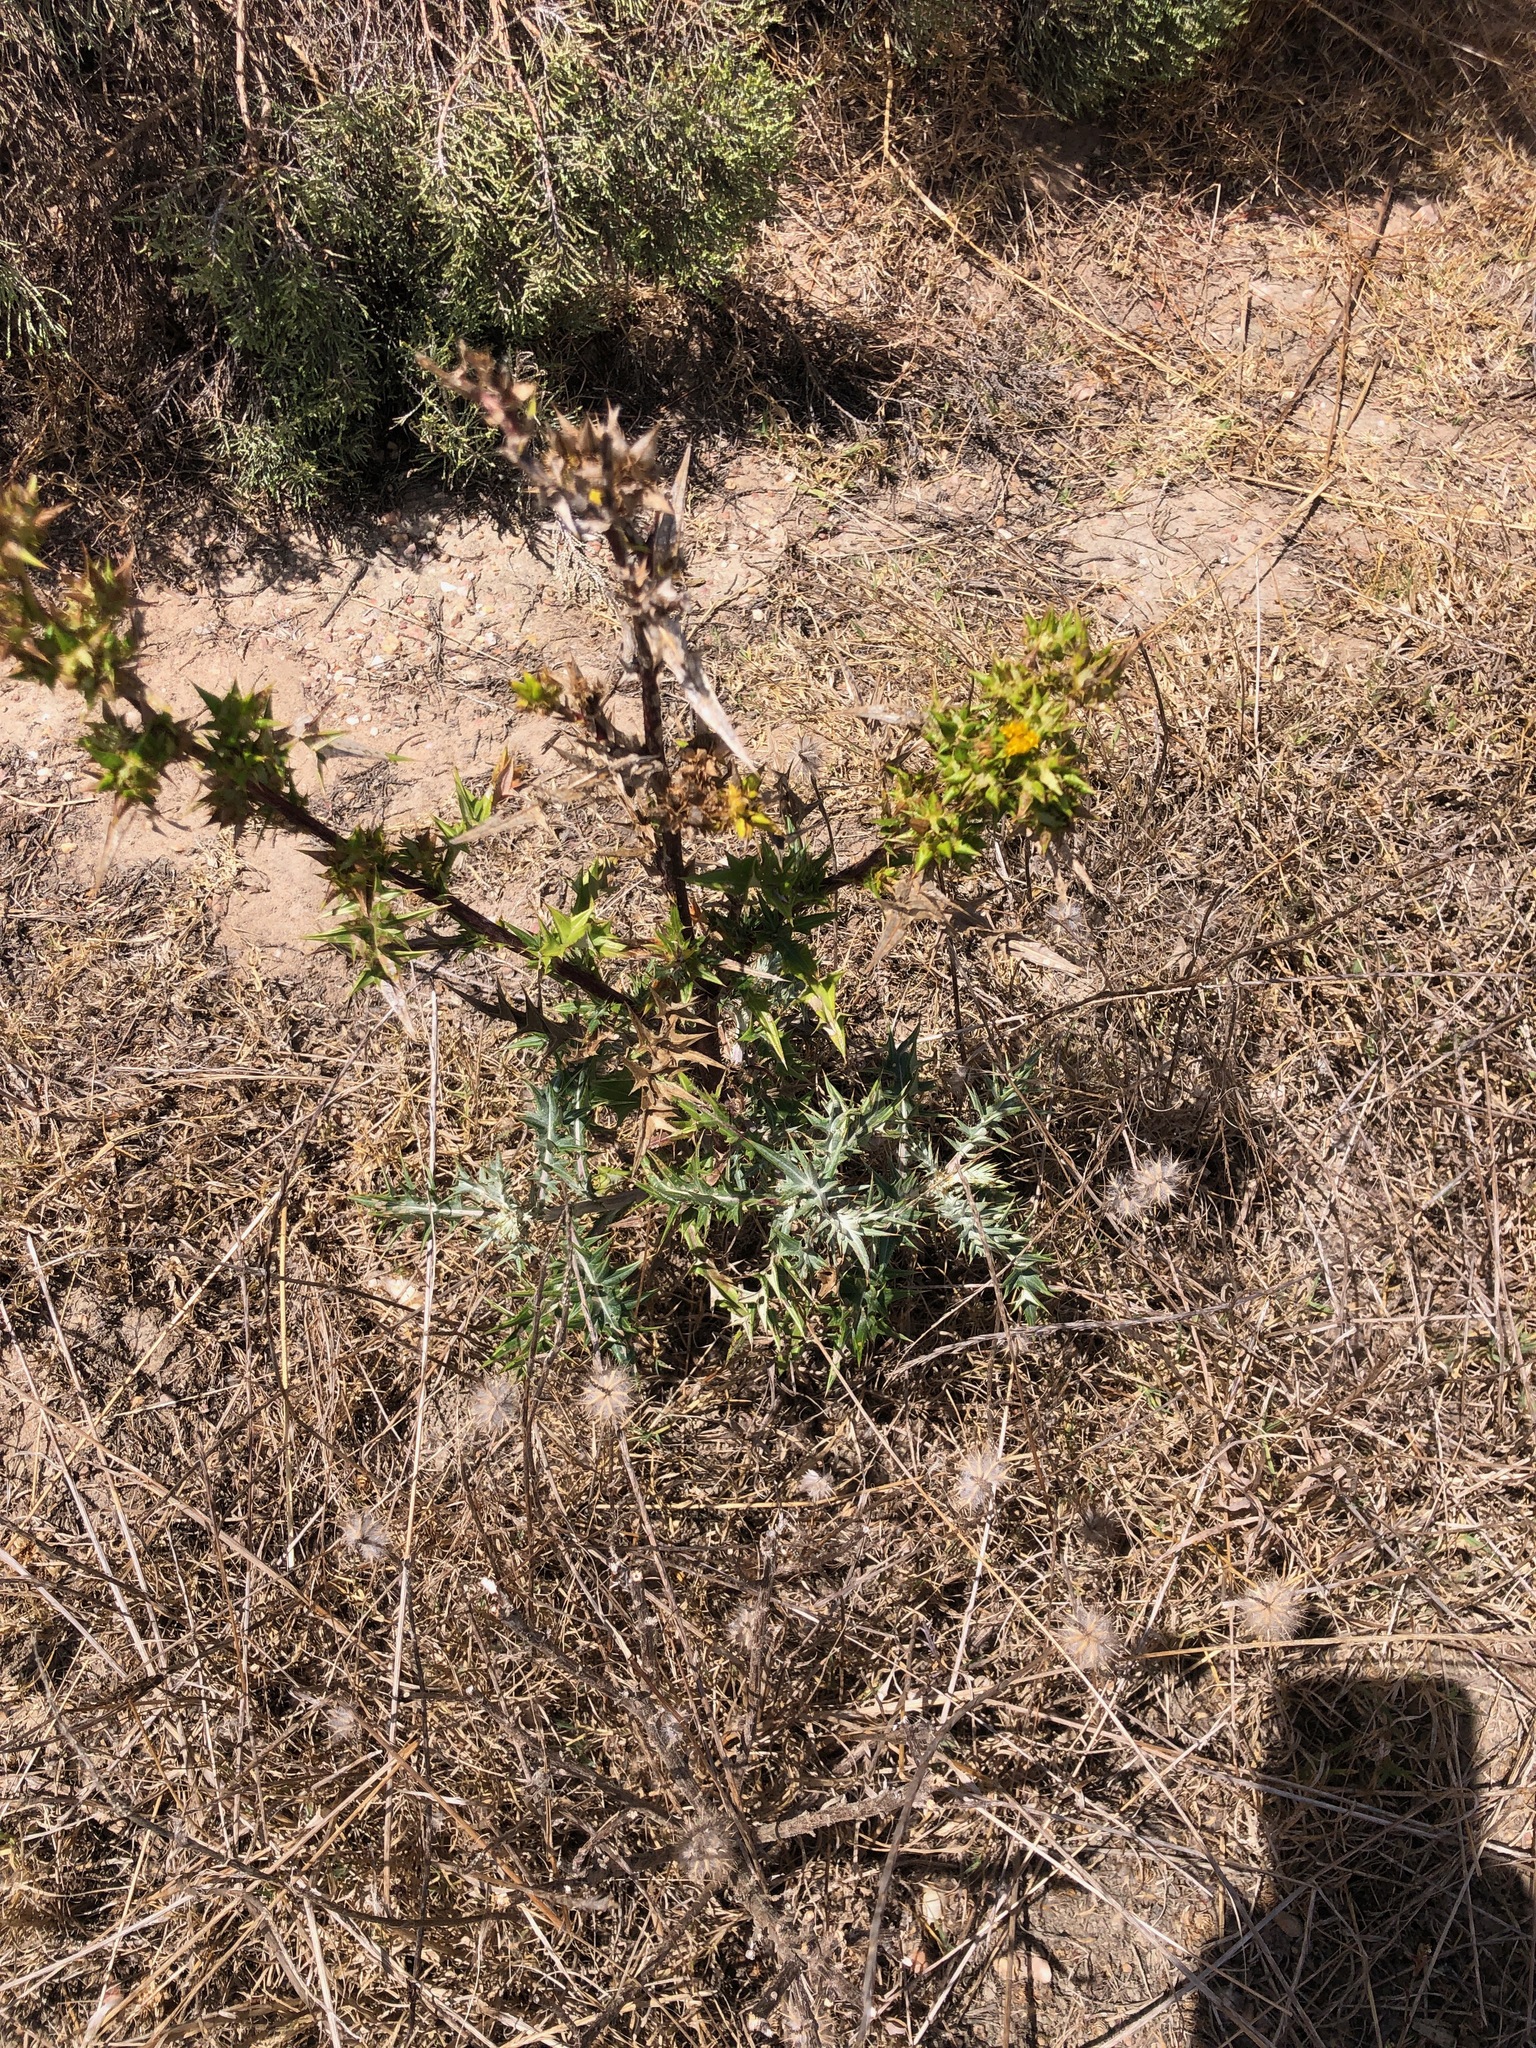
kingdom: Plantae
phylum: Tracheophyta
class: Magnoliopsida
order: Asterales
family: Asteraceae
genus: Berkheya
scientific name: Berkheya rigida
